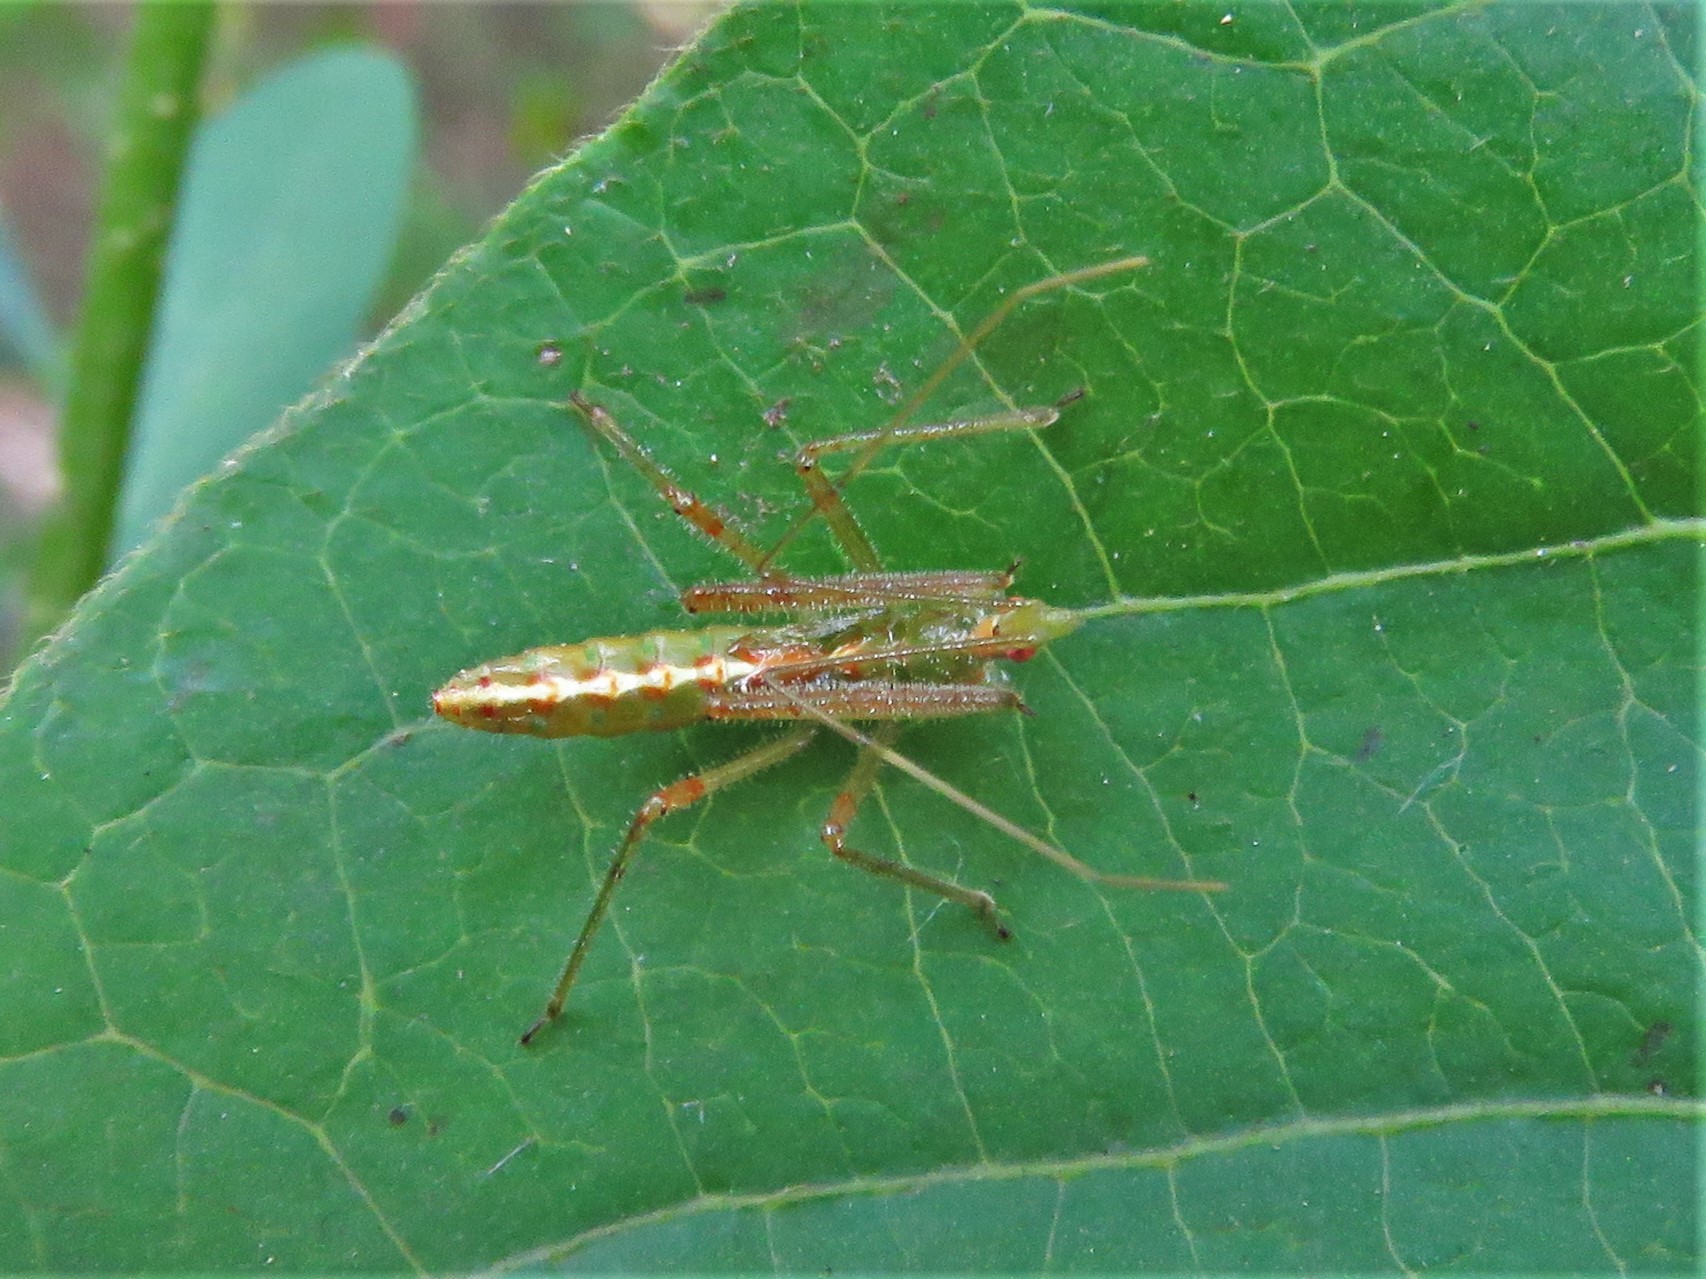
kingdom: Animalia
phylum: Arthropoda
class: Insecta
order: Hemiptera
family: Reduviidae
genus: Zelus
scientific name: Zelus luridus
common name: Pale green assassin bug
